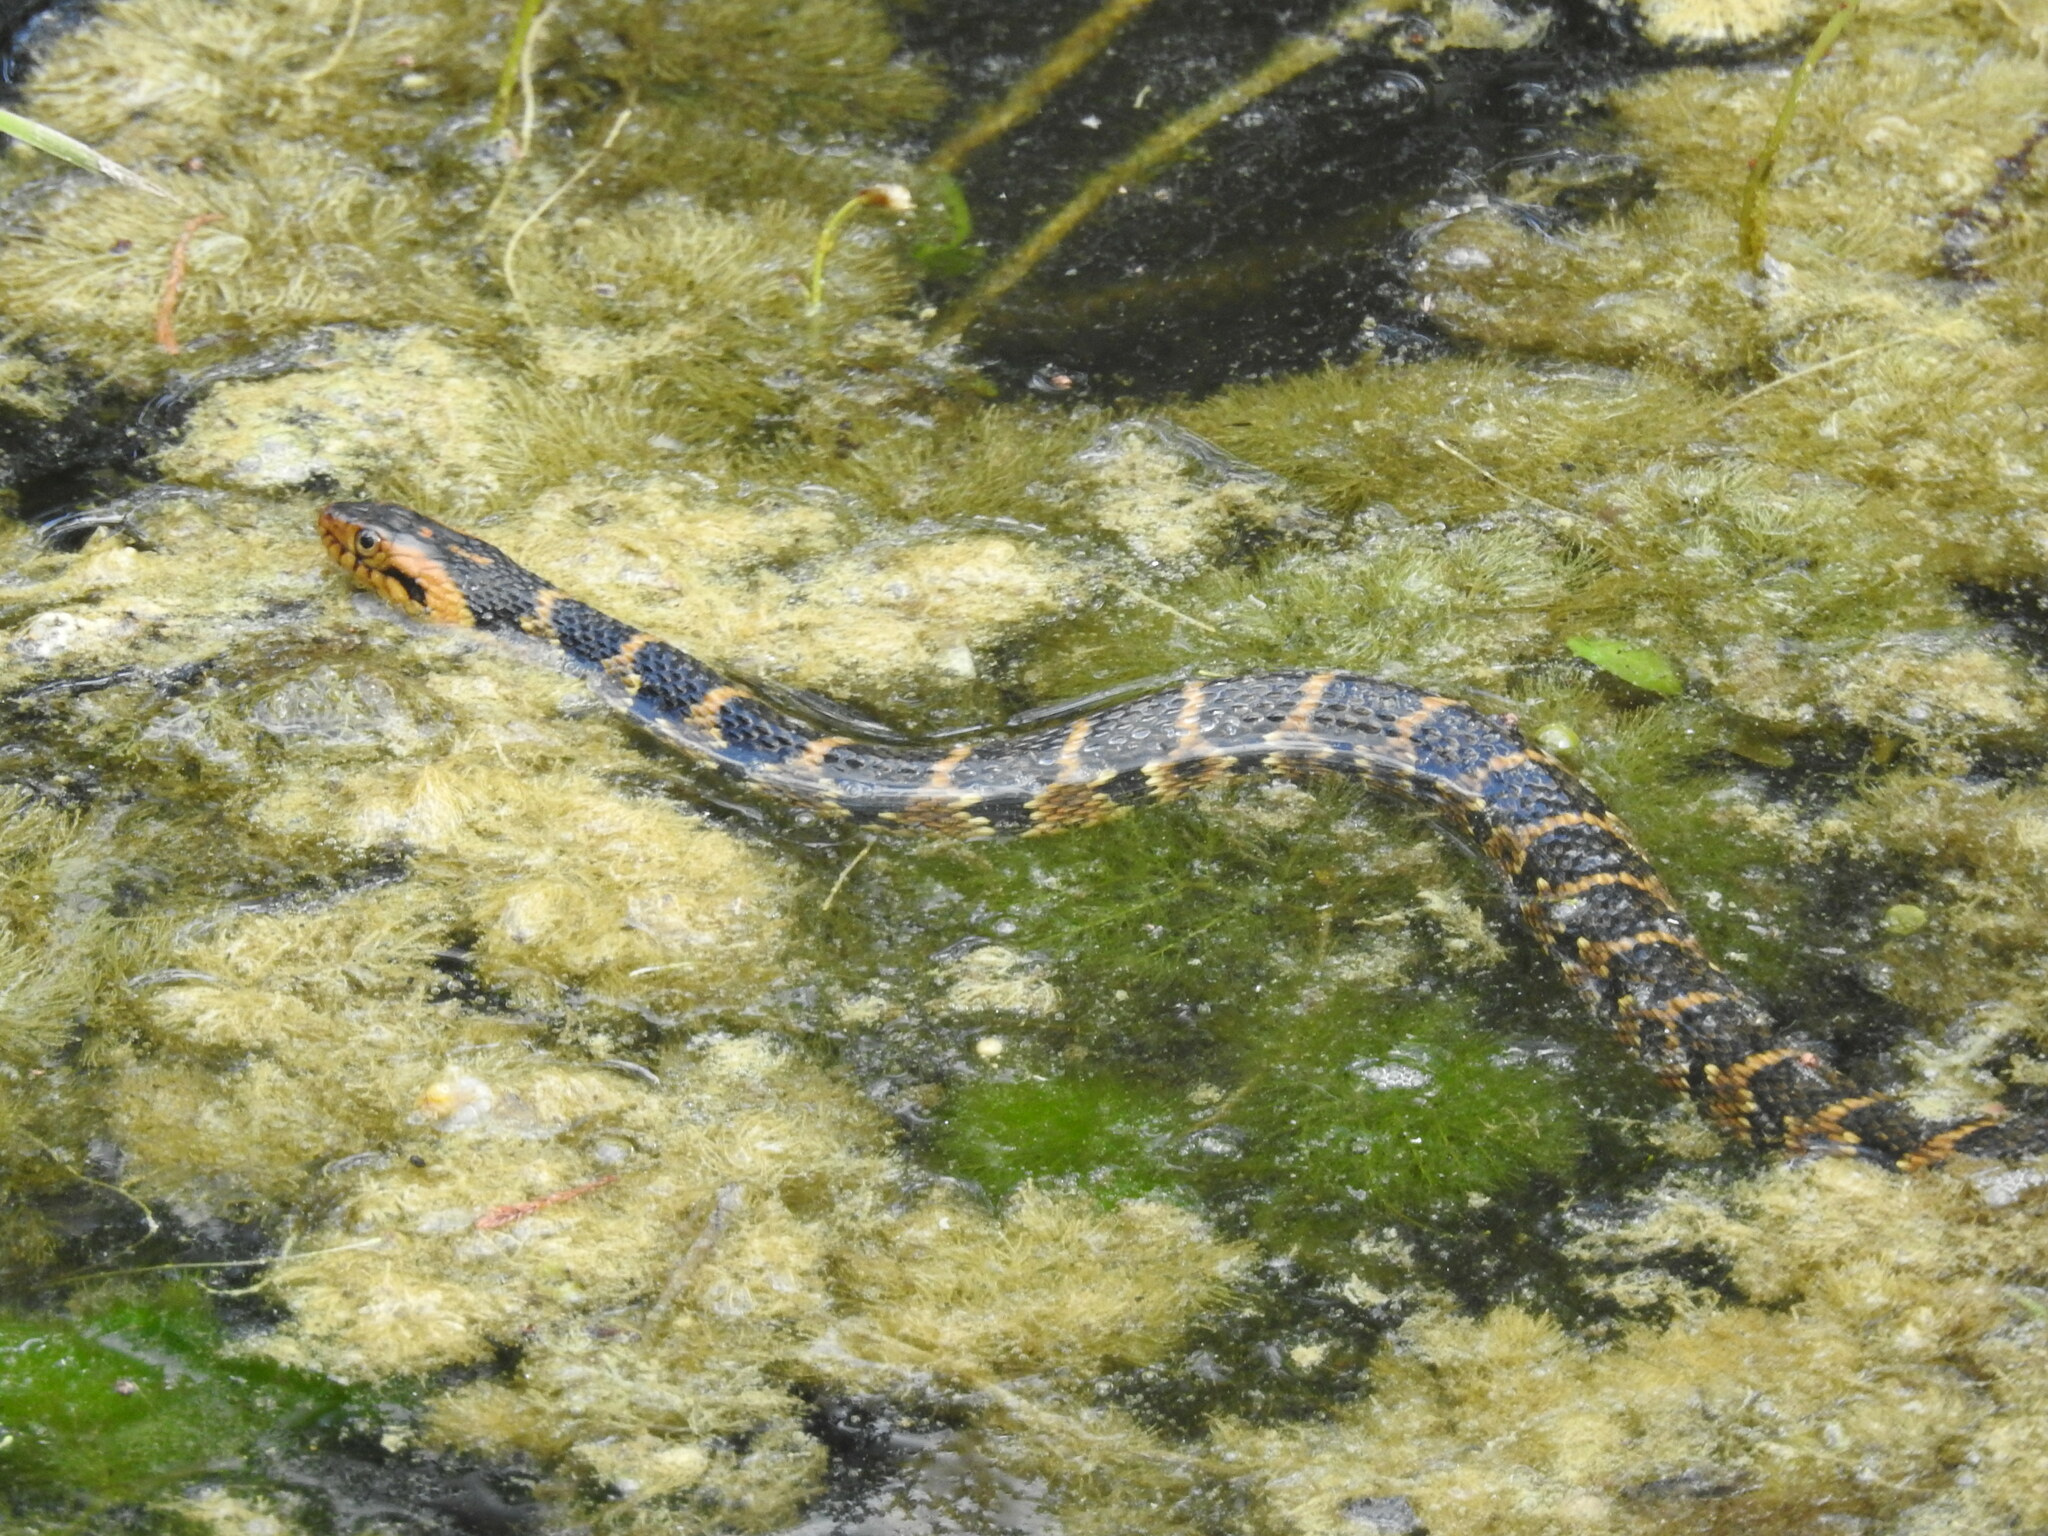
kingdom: Animalia
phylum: Chordata
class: Squamata
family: Colubridae
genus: Nerodia
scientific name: Nerodia fasciata
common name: Southern water snake
